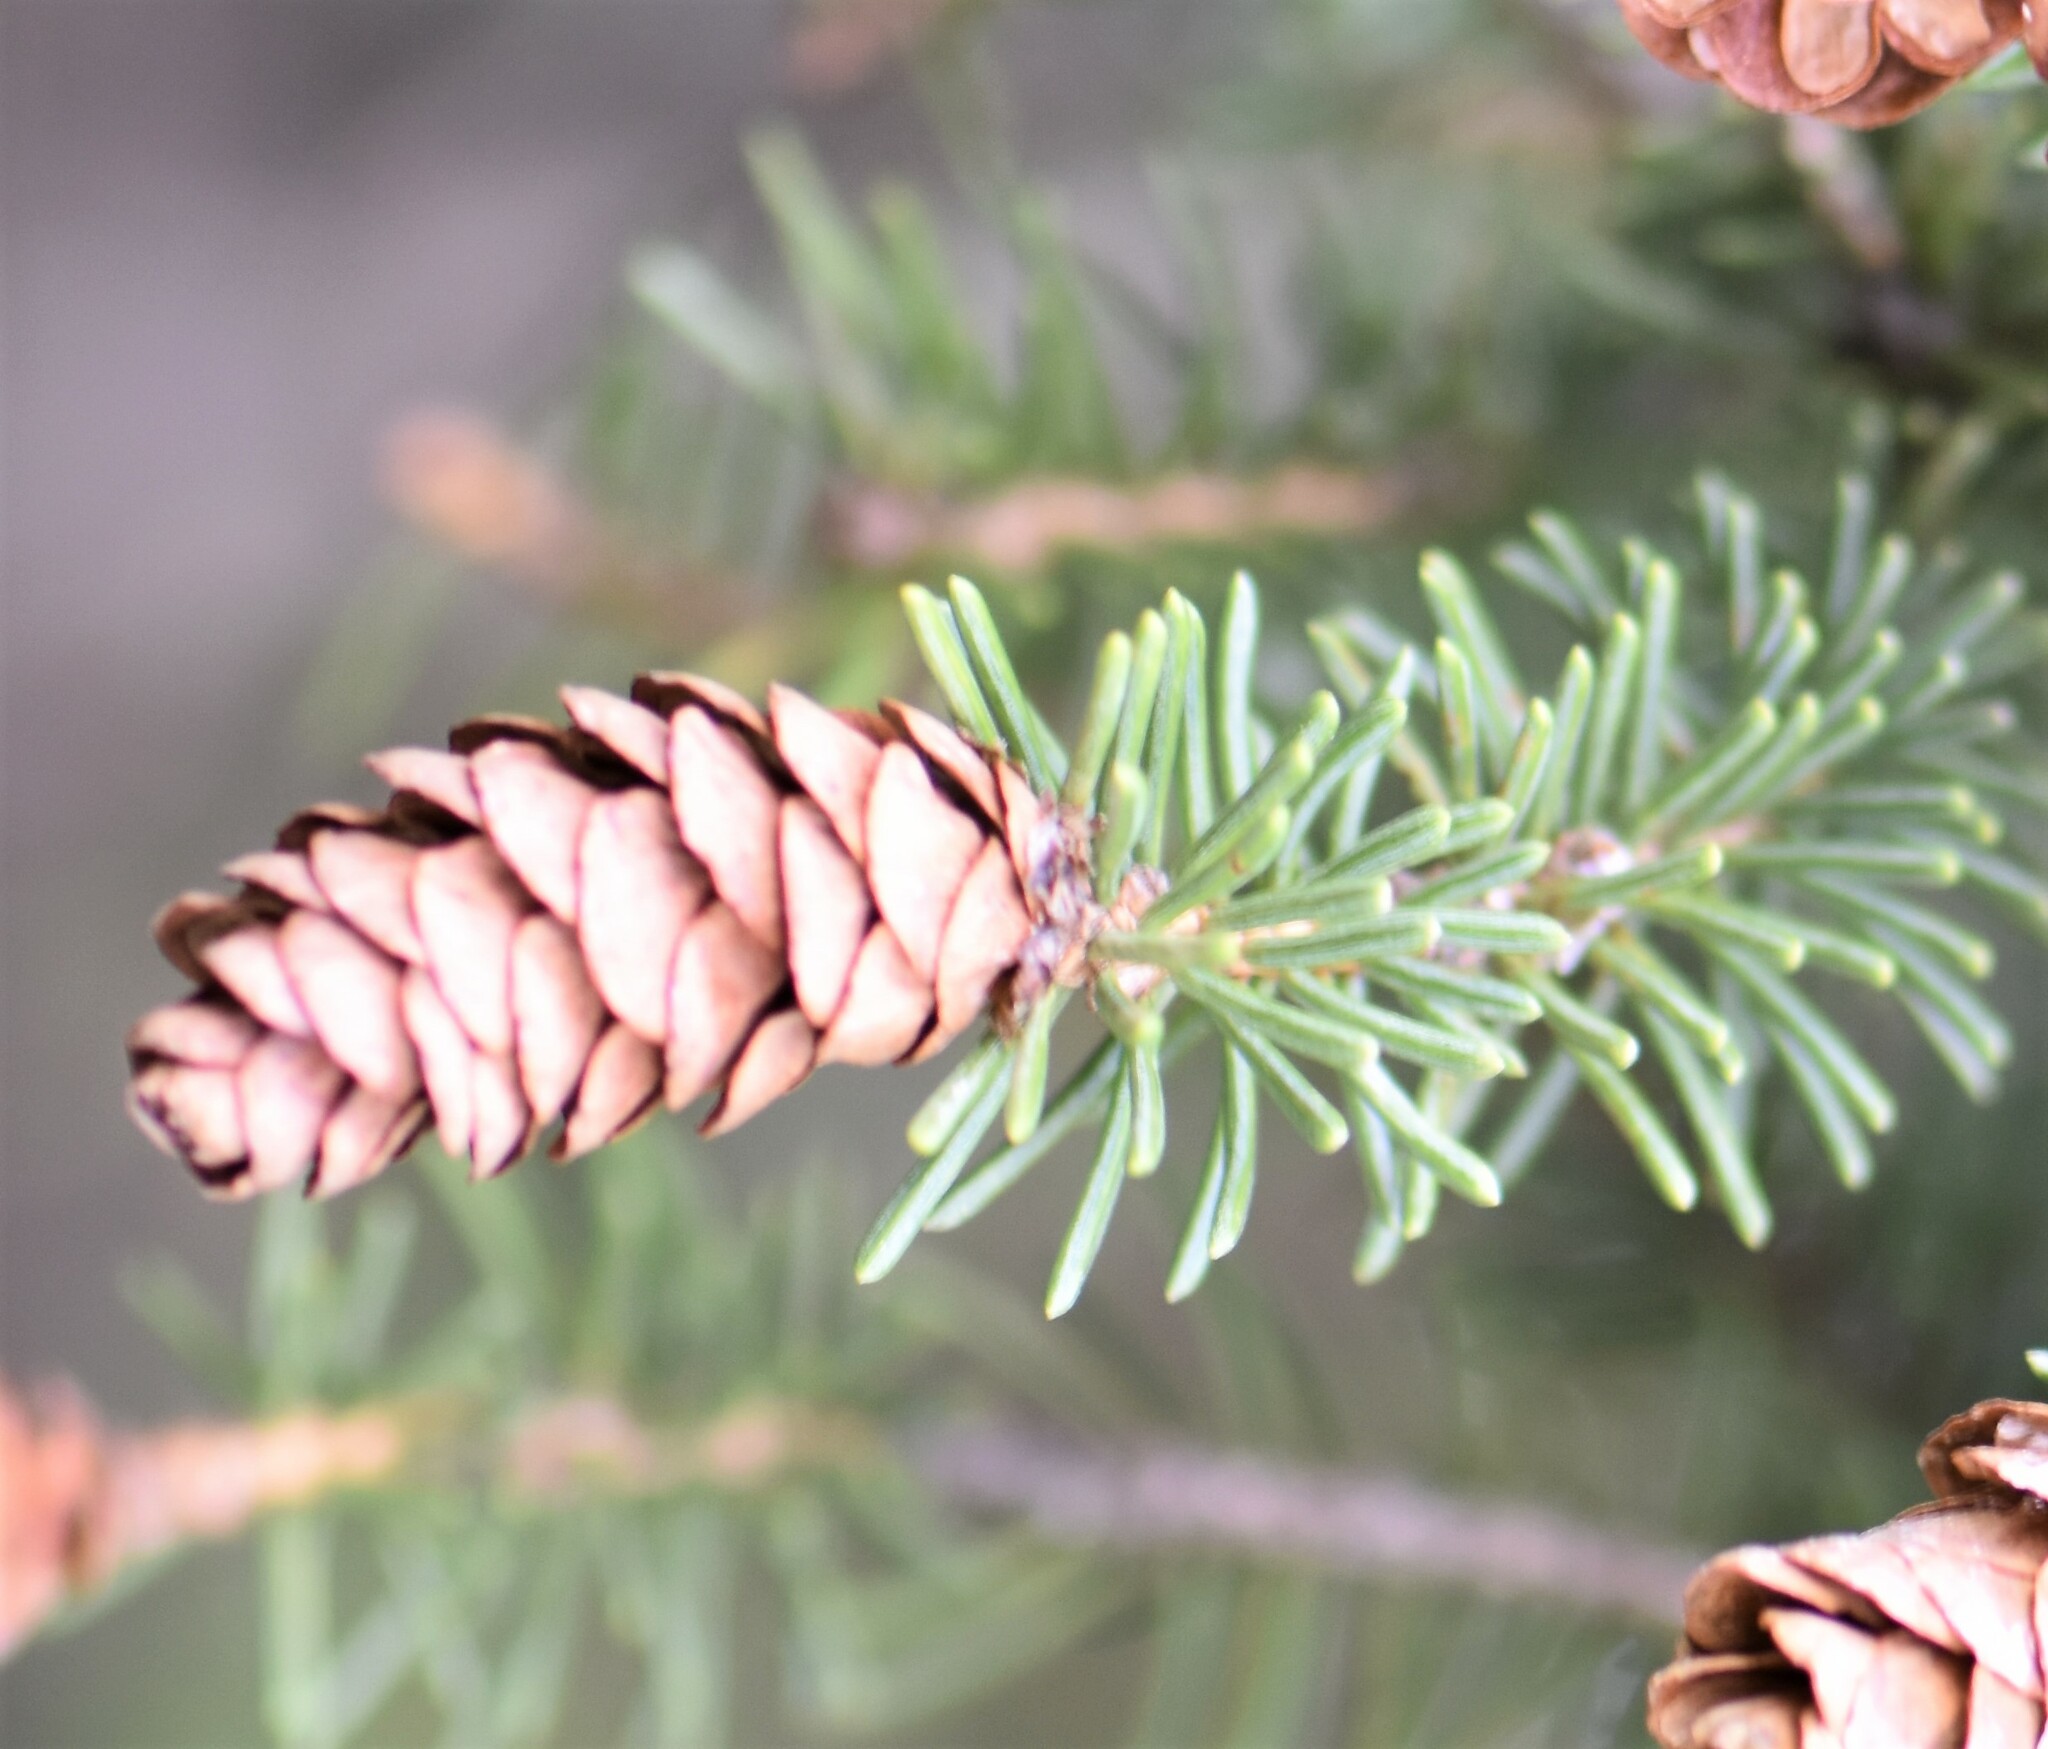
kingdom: Plantae
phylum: Tracheophyta
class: Pinopsida
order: Pinales
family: Pinaceae
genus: Picea
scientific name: Picea glauca
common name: White spruce
